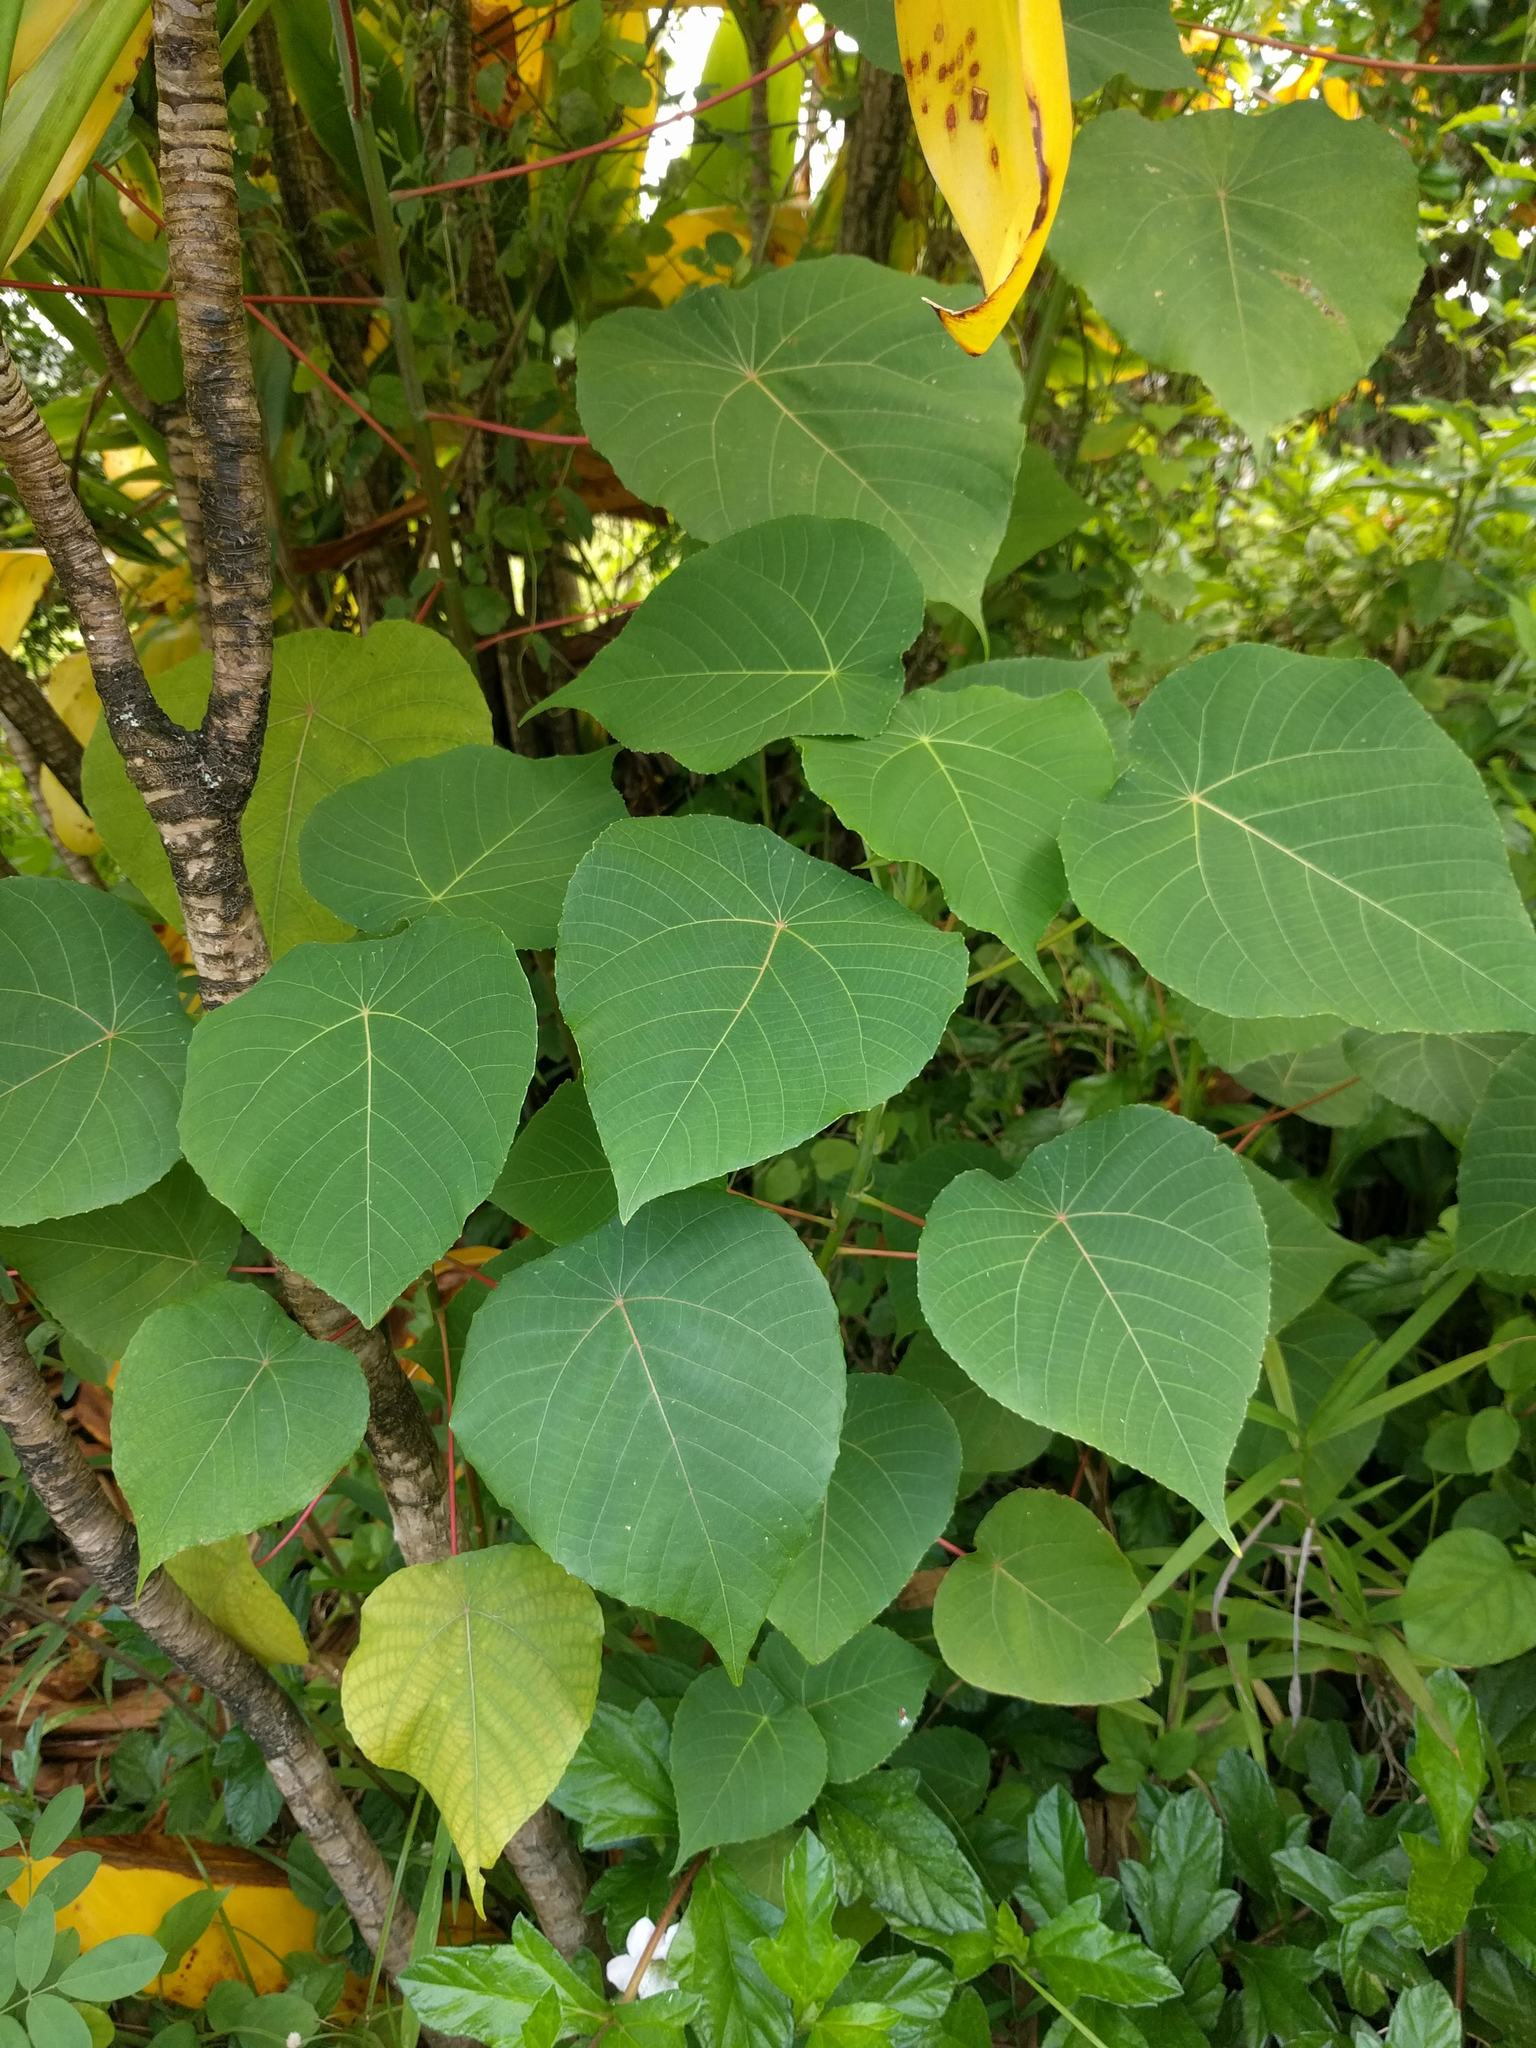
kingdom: Plantae
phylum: Tracheophyta
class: Magnoliopsida
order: Malpighiales
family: Euphorbiaceae
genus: Macaranga
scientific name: Macaranga tanarius
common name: Parasol leaf tree
